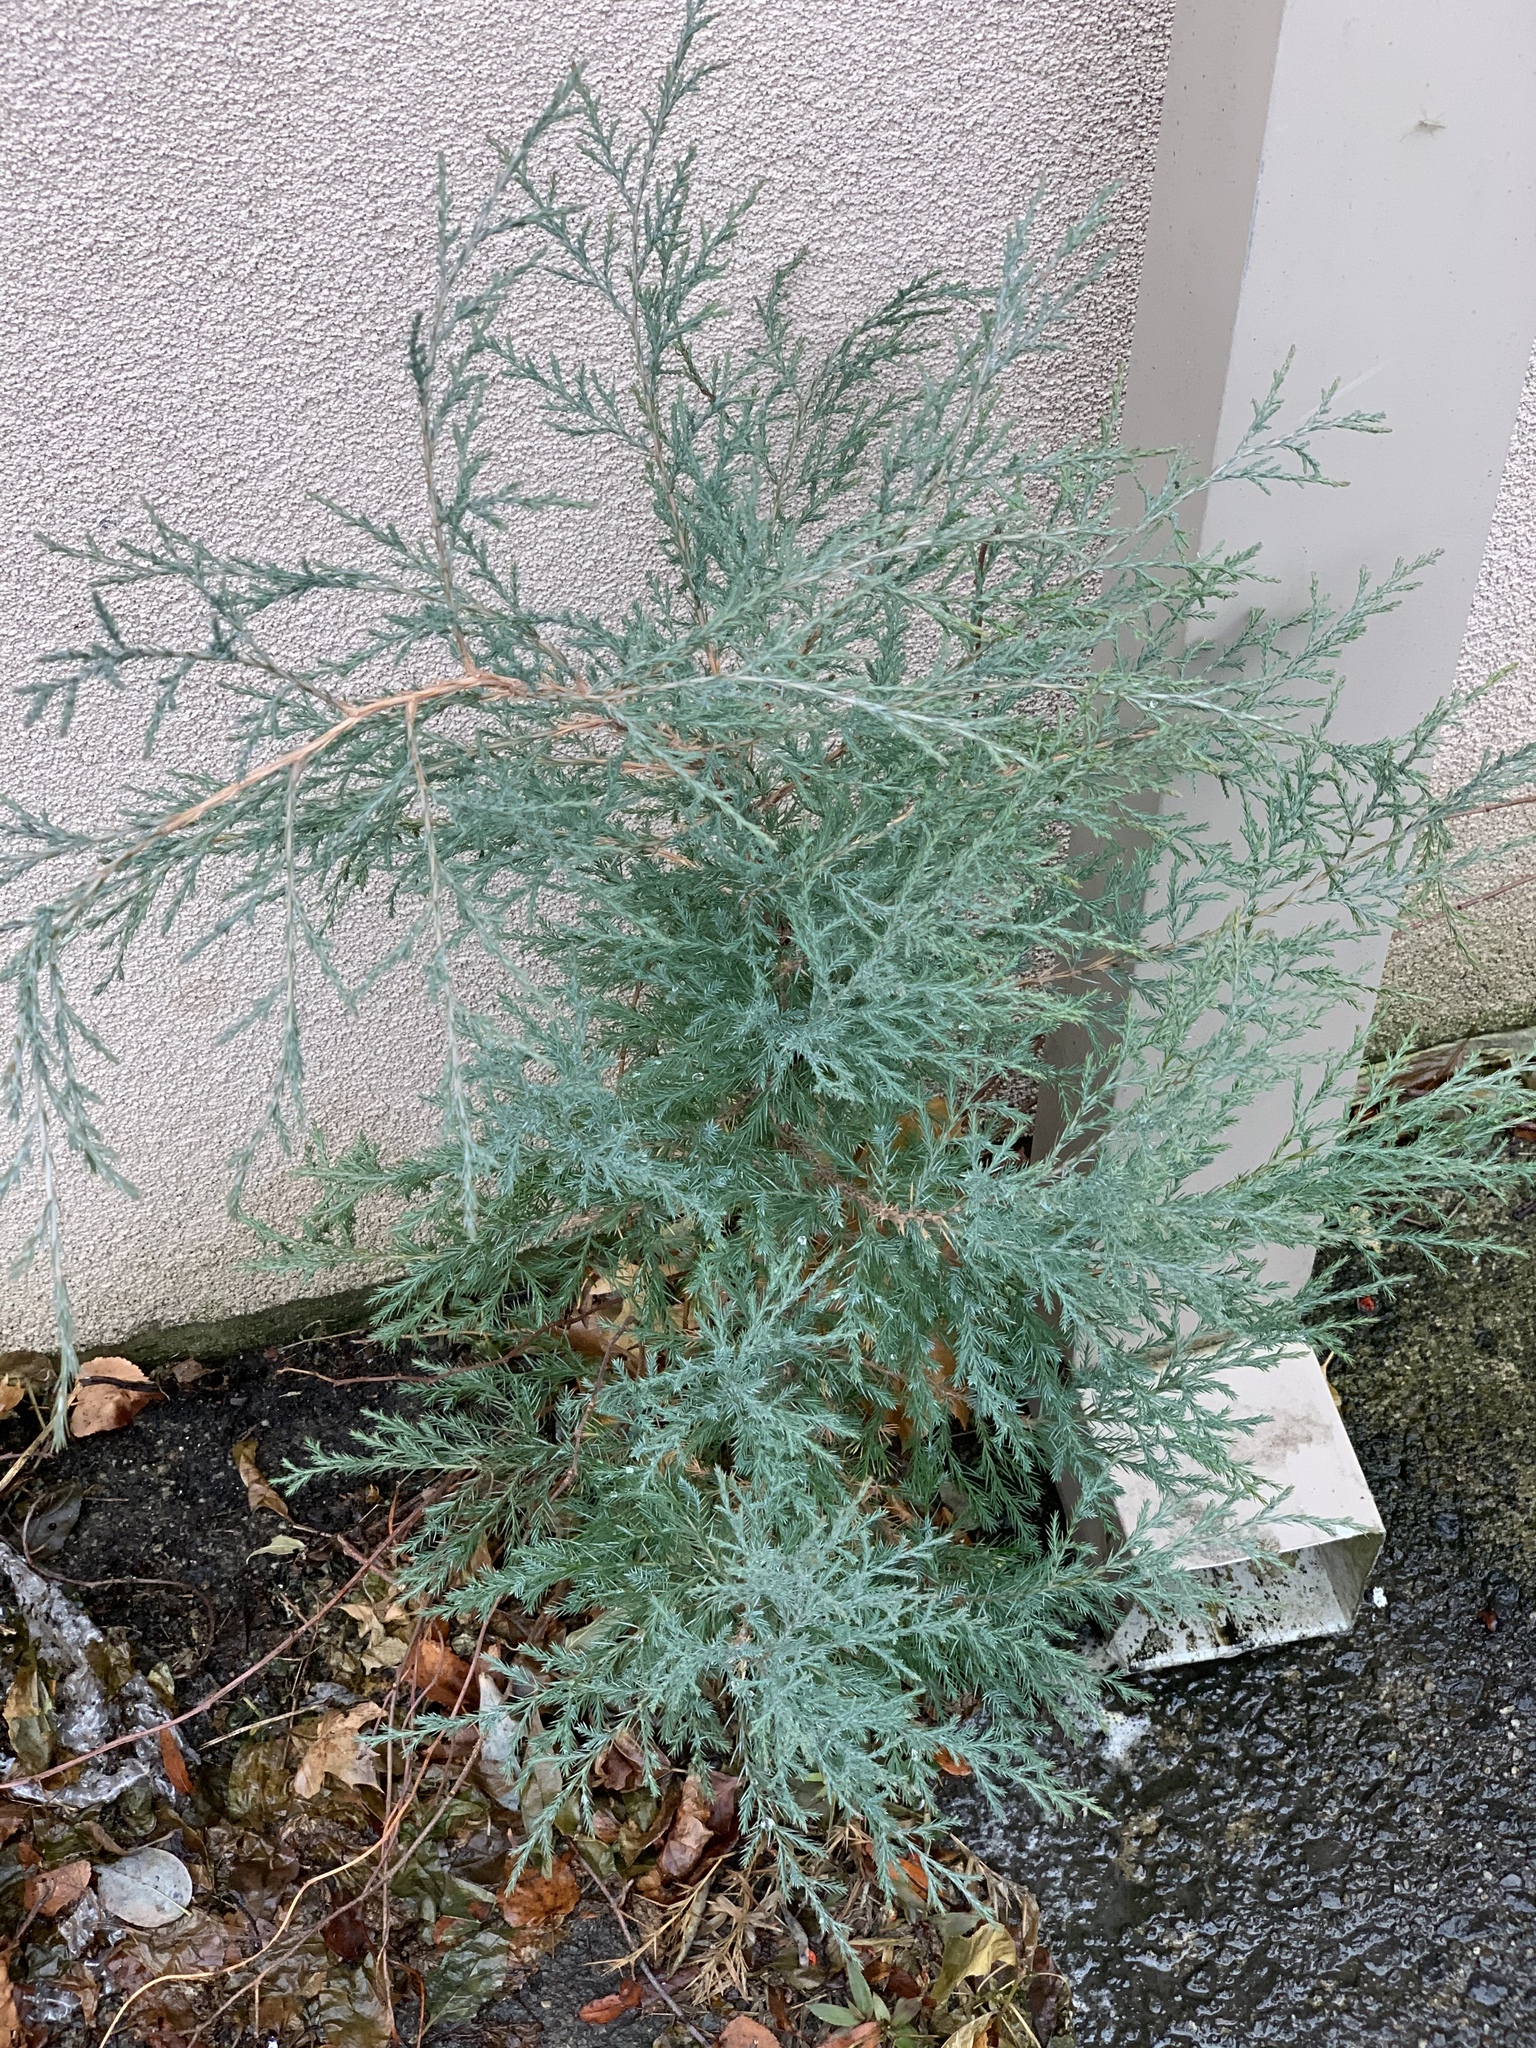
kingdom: Plantae
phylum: Tracheophyta
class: Pinopsida
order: Pinales
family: Cupressaceae
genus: Juniperus
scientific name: Juniperus virginiana
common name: Red juniper
